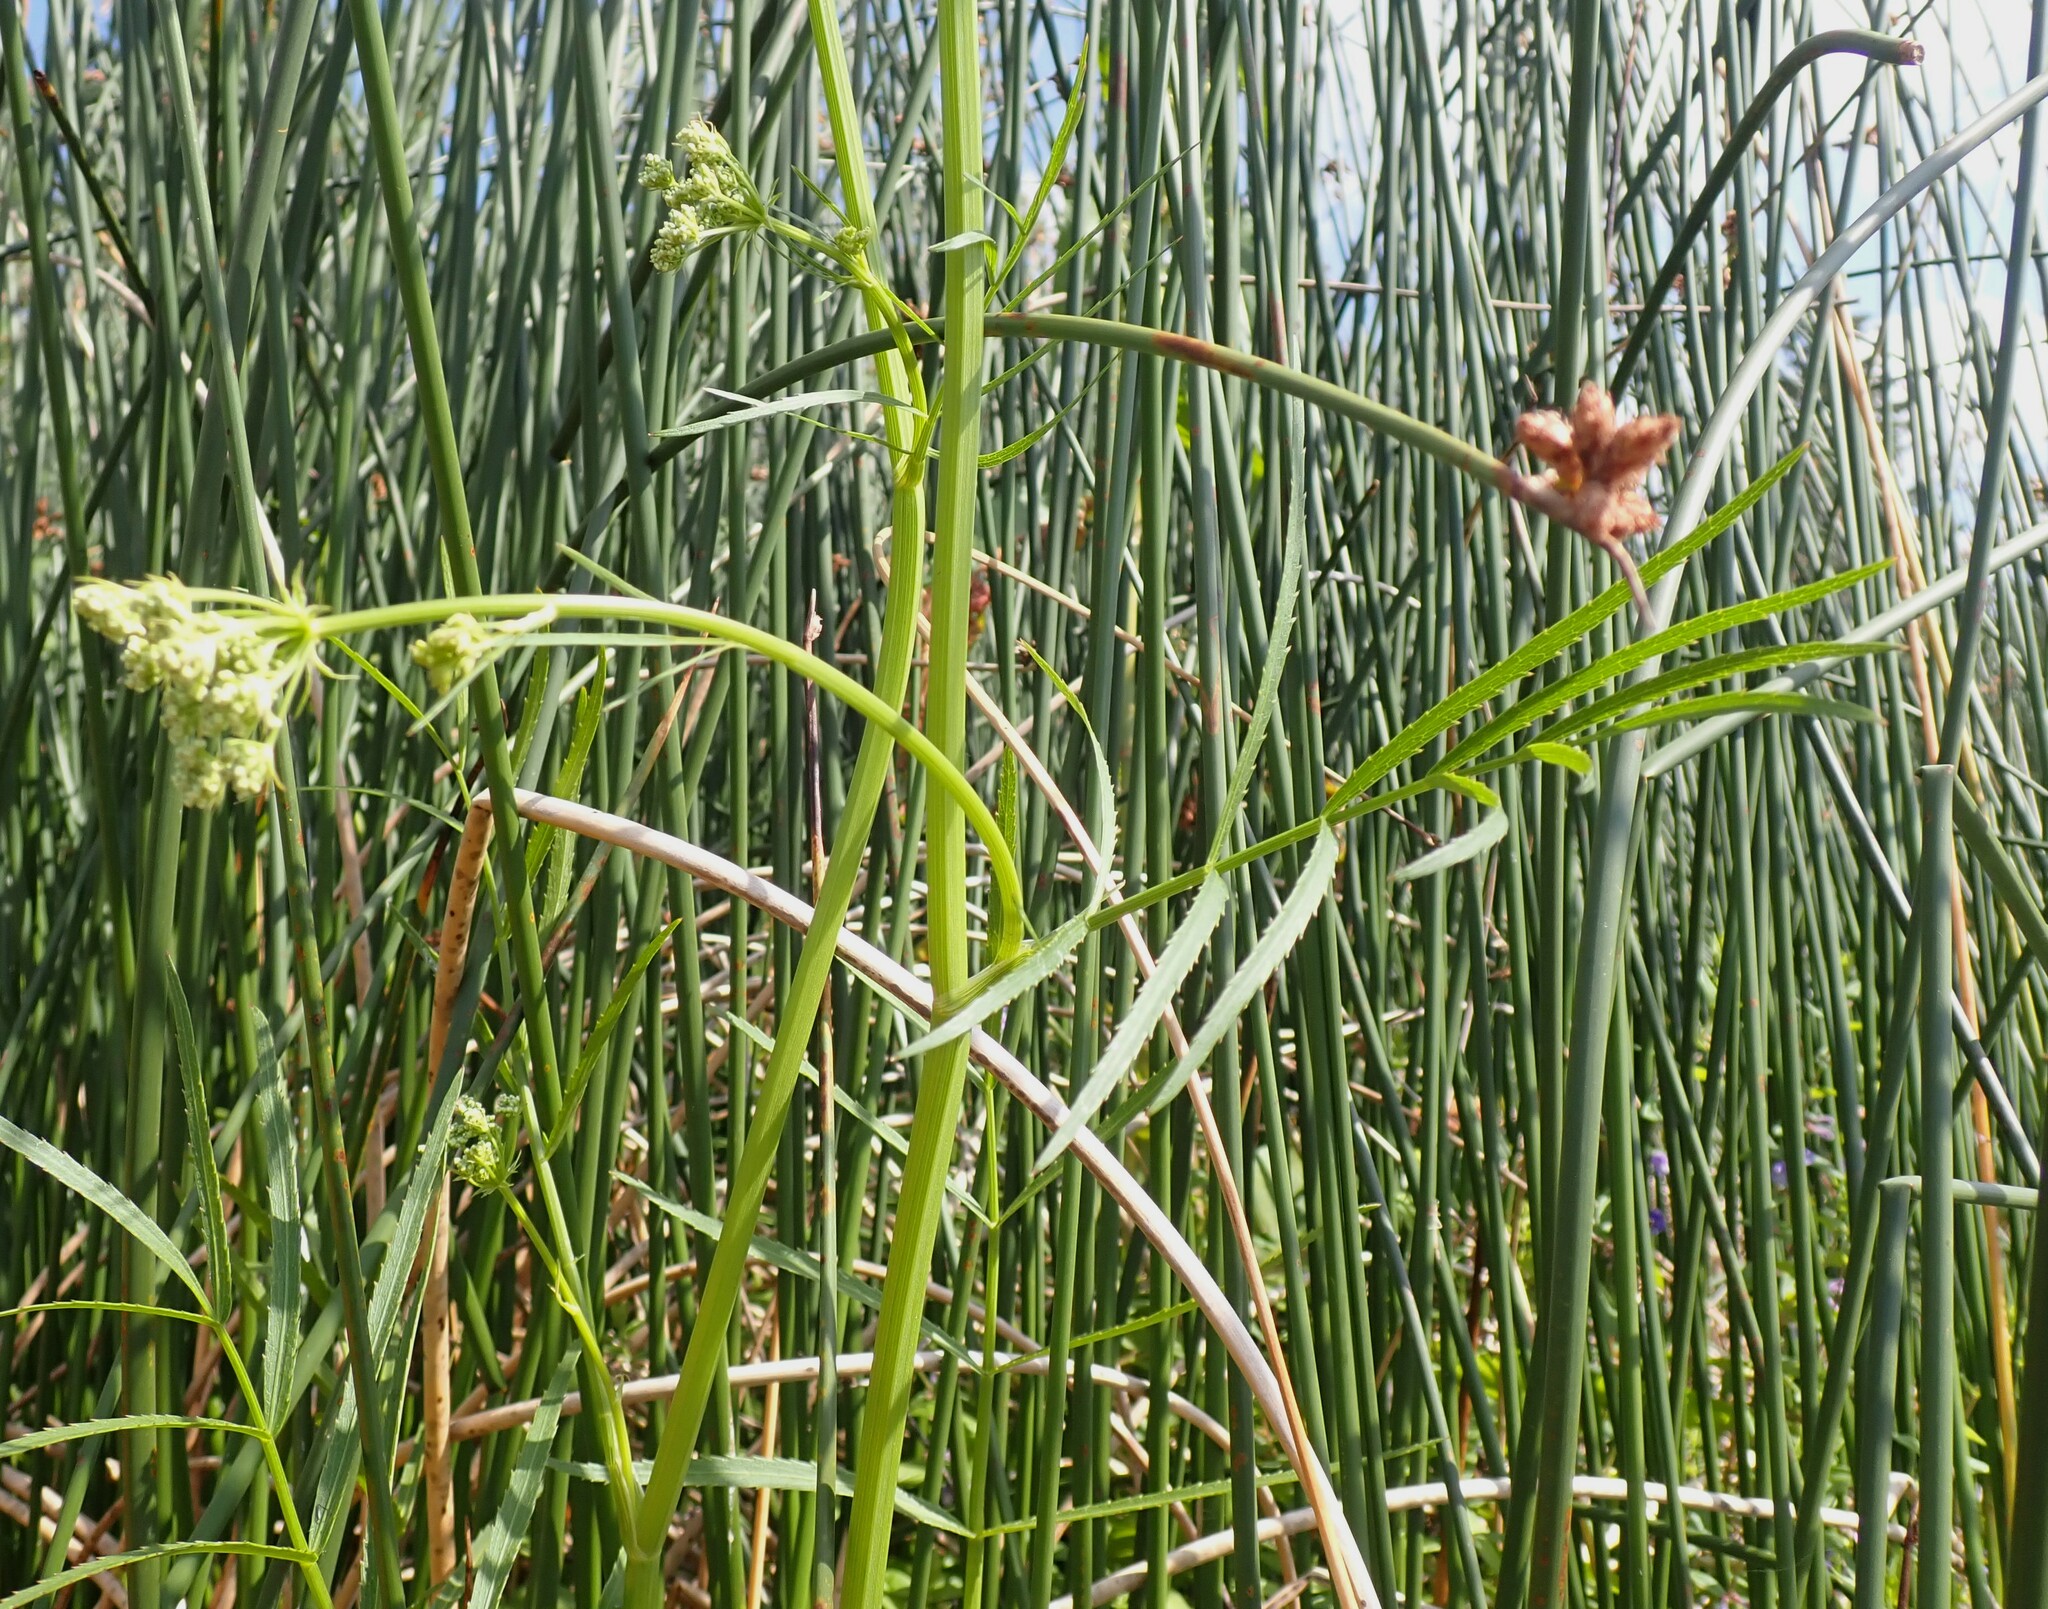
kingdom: Plantae
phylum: Tracheophyta
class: Magnoliopsida
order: Apiales
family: Apiaceae
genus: Sium
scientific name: Sium suave
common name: Hemlock water-parsnip
